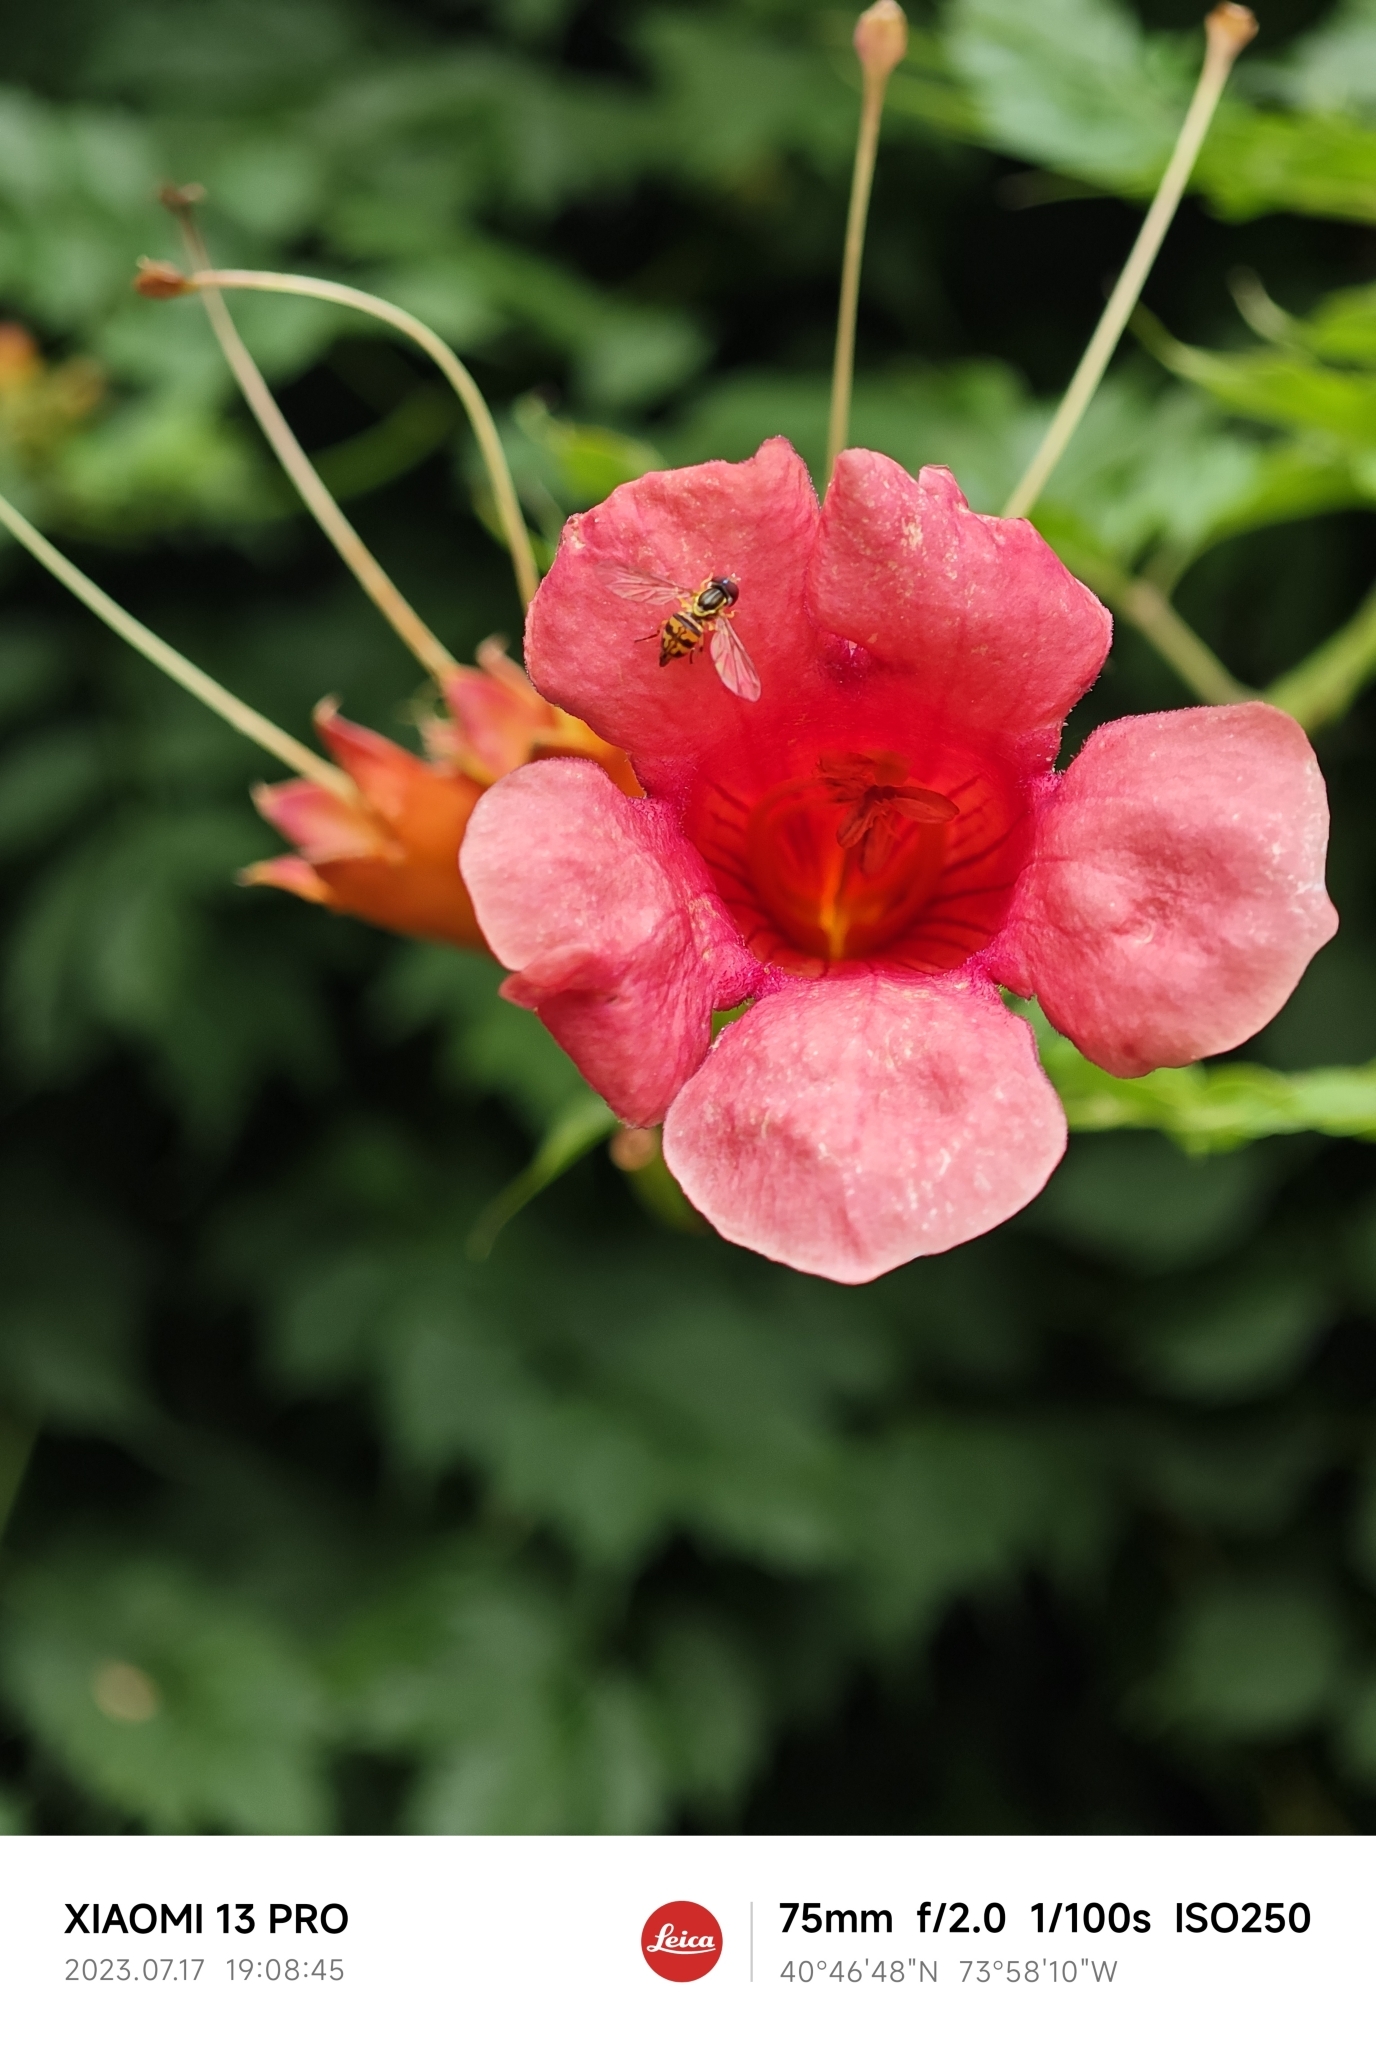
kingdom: Animalia
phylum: Arthropoda
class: Insecta
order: Diptera
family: Syrphidae
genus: Toxomerus
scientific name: Toxomerus geminatus
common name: Eastern calligrapher
